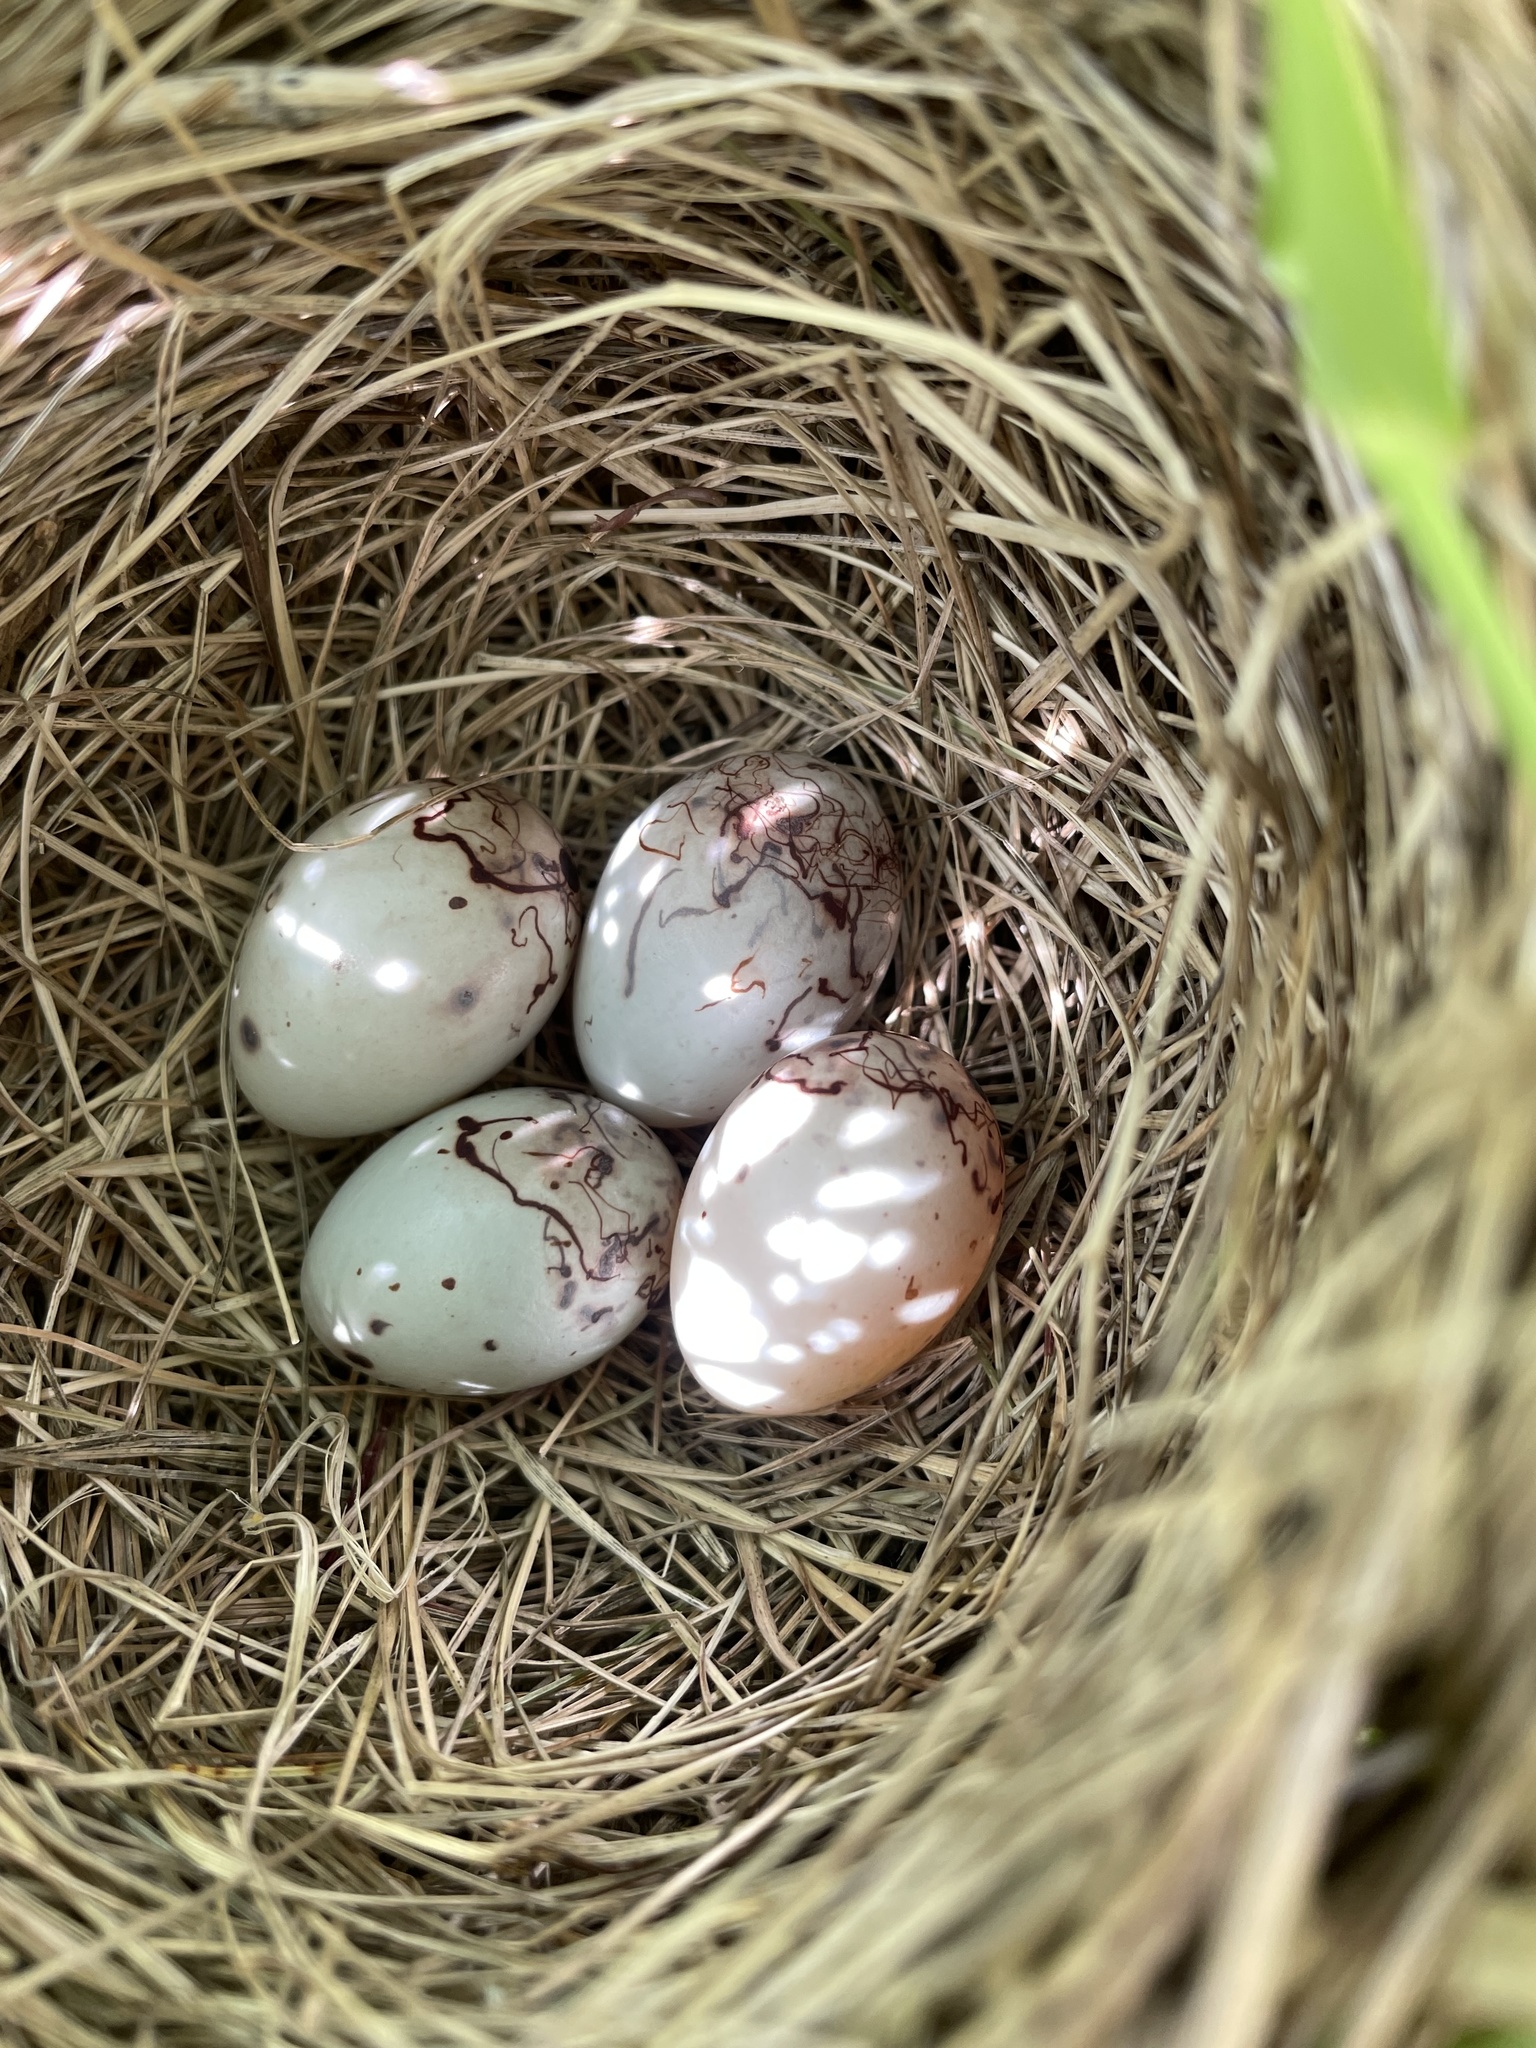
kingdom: Animalia
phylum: Chordata
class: Aves
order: Passeriformes
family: Icteridae
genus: Agelaius
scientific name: Agelaius phoeniceus
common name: Red-winged blackbird
